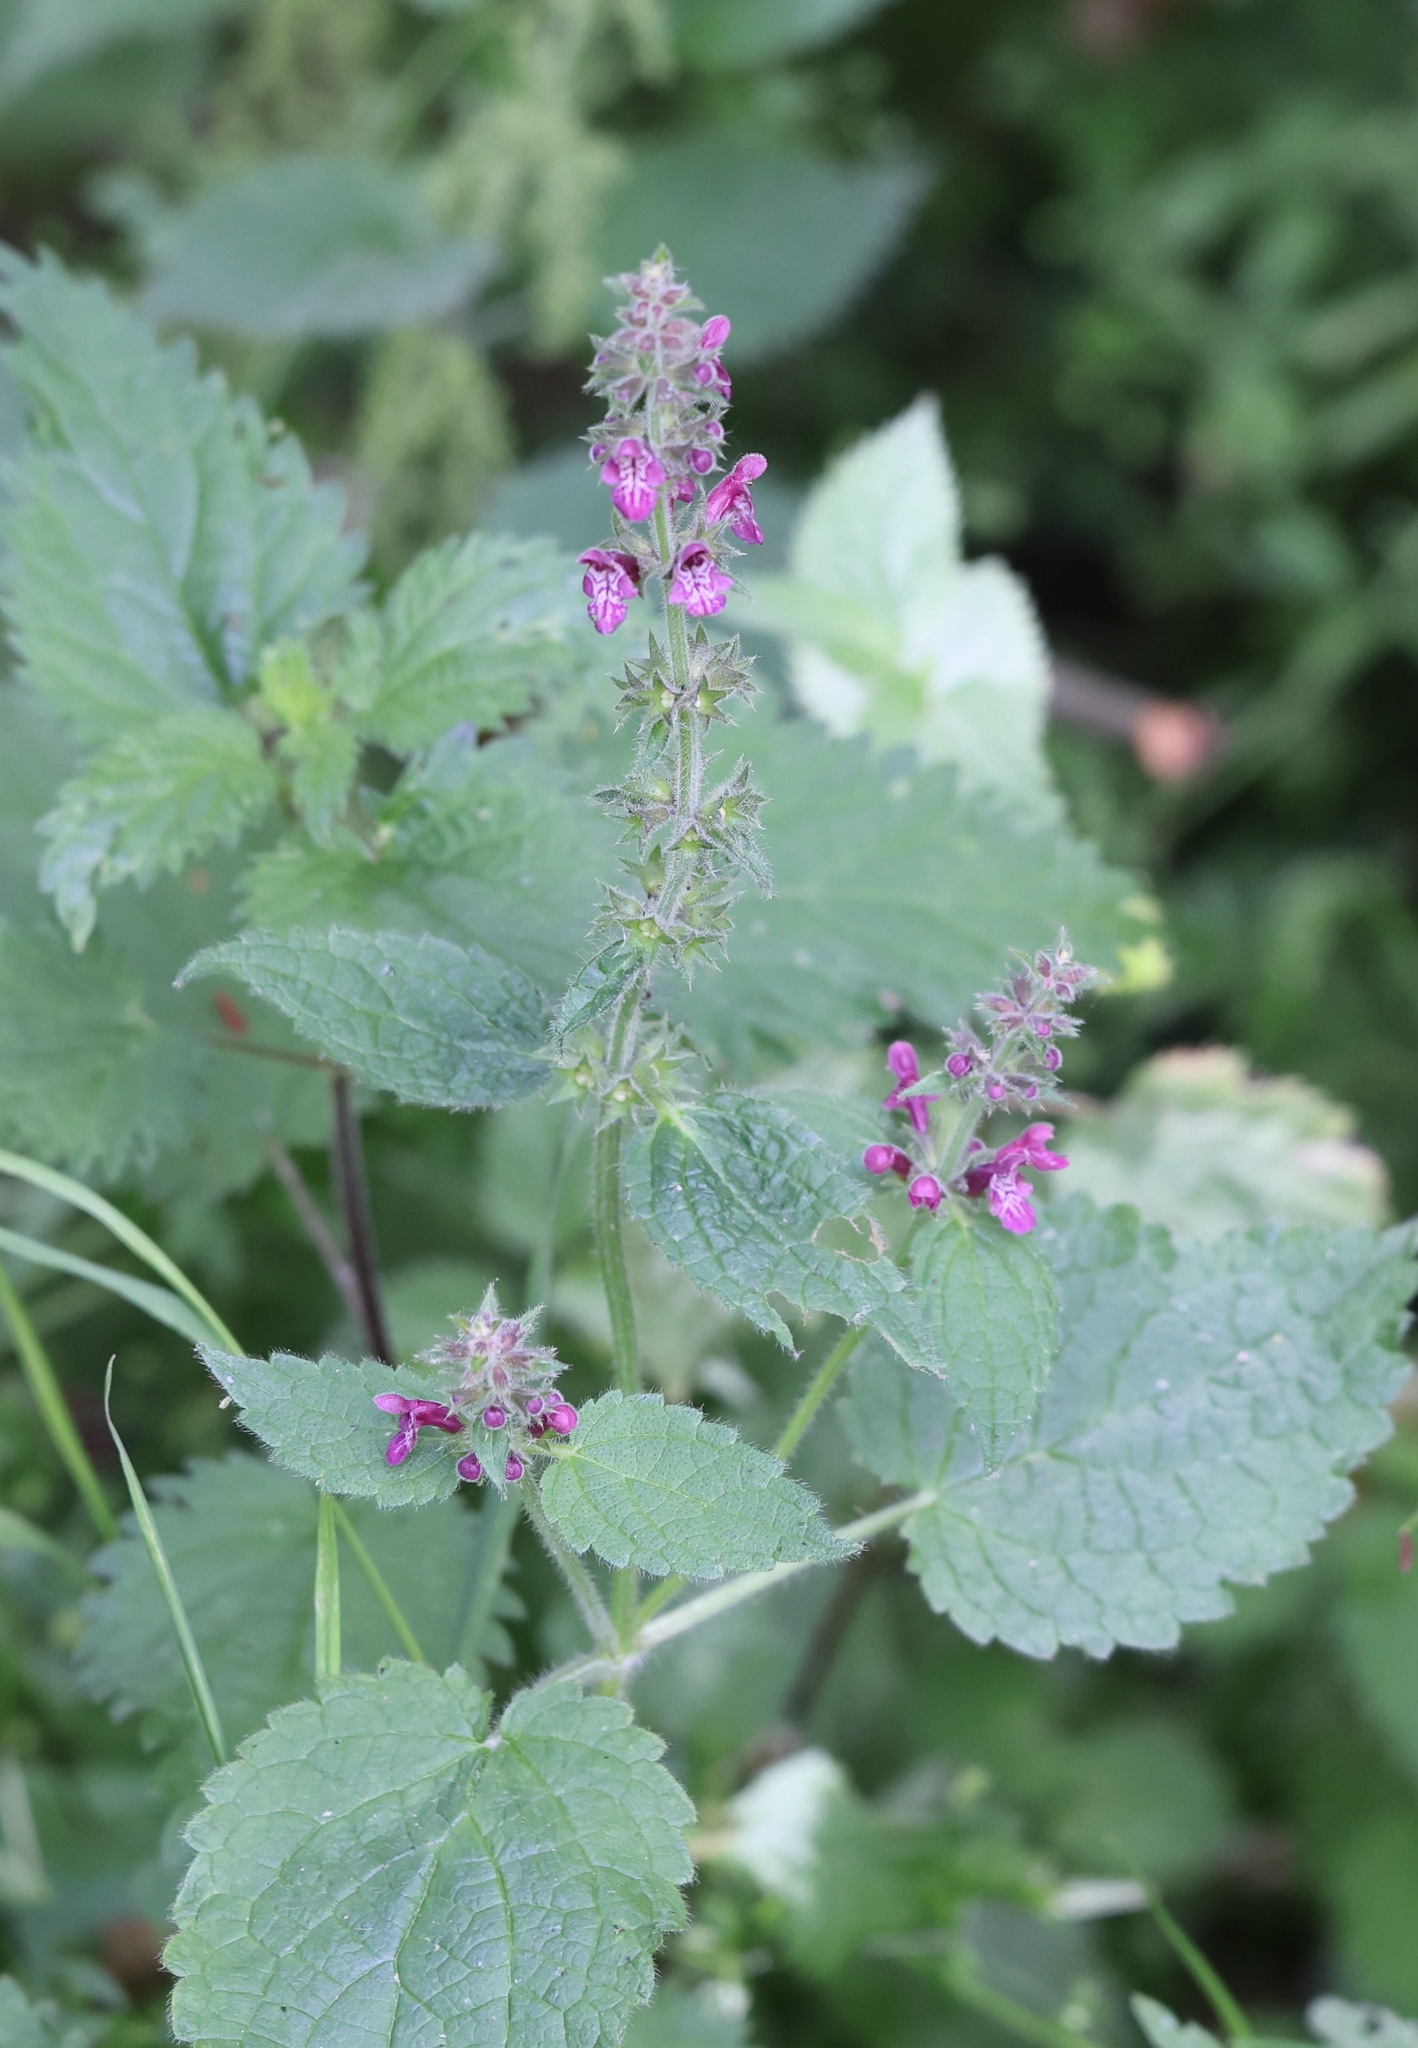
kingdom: Plantae
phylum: Tracheophyta
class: Magnoliopsida
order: Lamiales
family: Lamiaceae
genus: Stachys
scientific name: Stachys sylvatica
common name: Hedge woundwort
